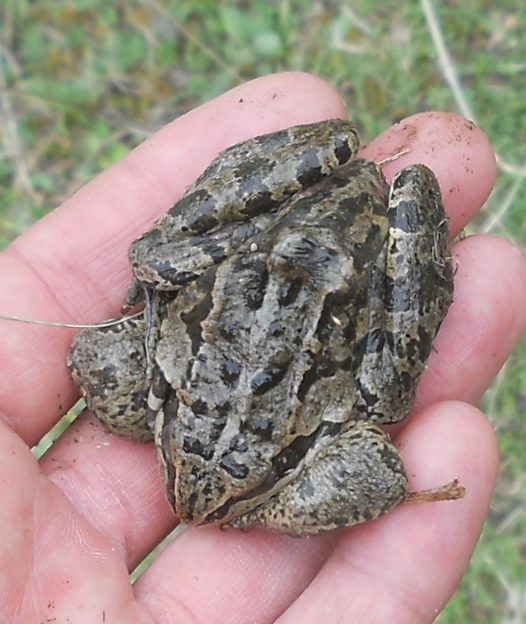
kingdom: Animalia
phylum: Chordata
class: Amphibia
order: Anura
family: Ranidae
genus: Rana
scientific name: Rana macrocnemis
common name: Banded frog
